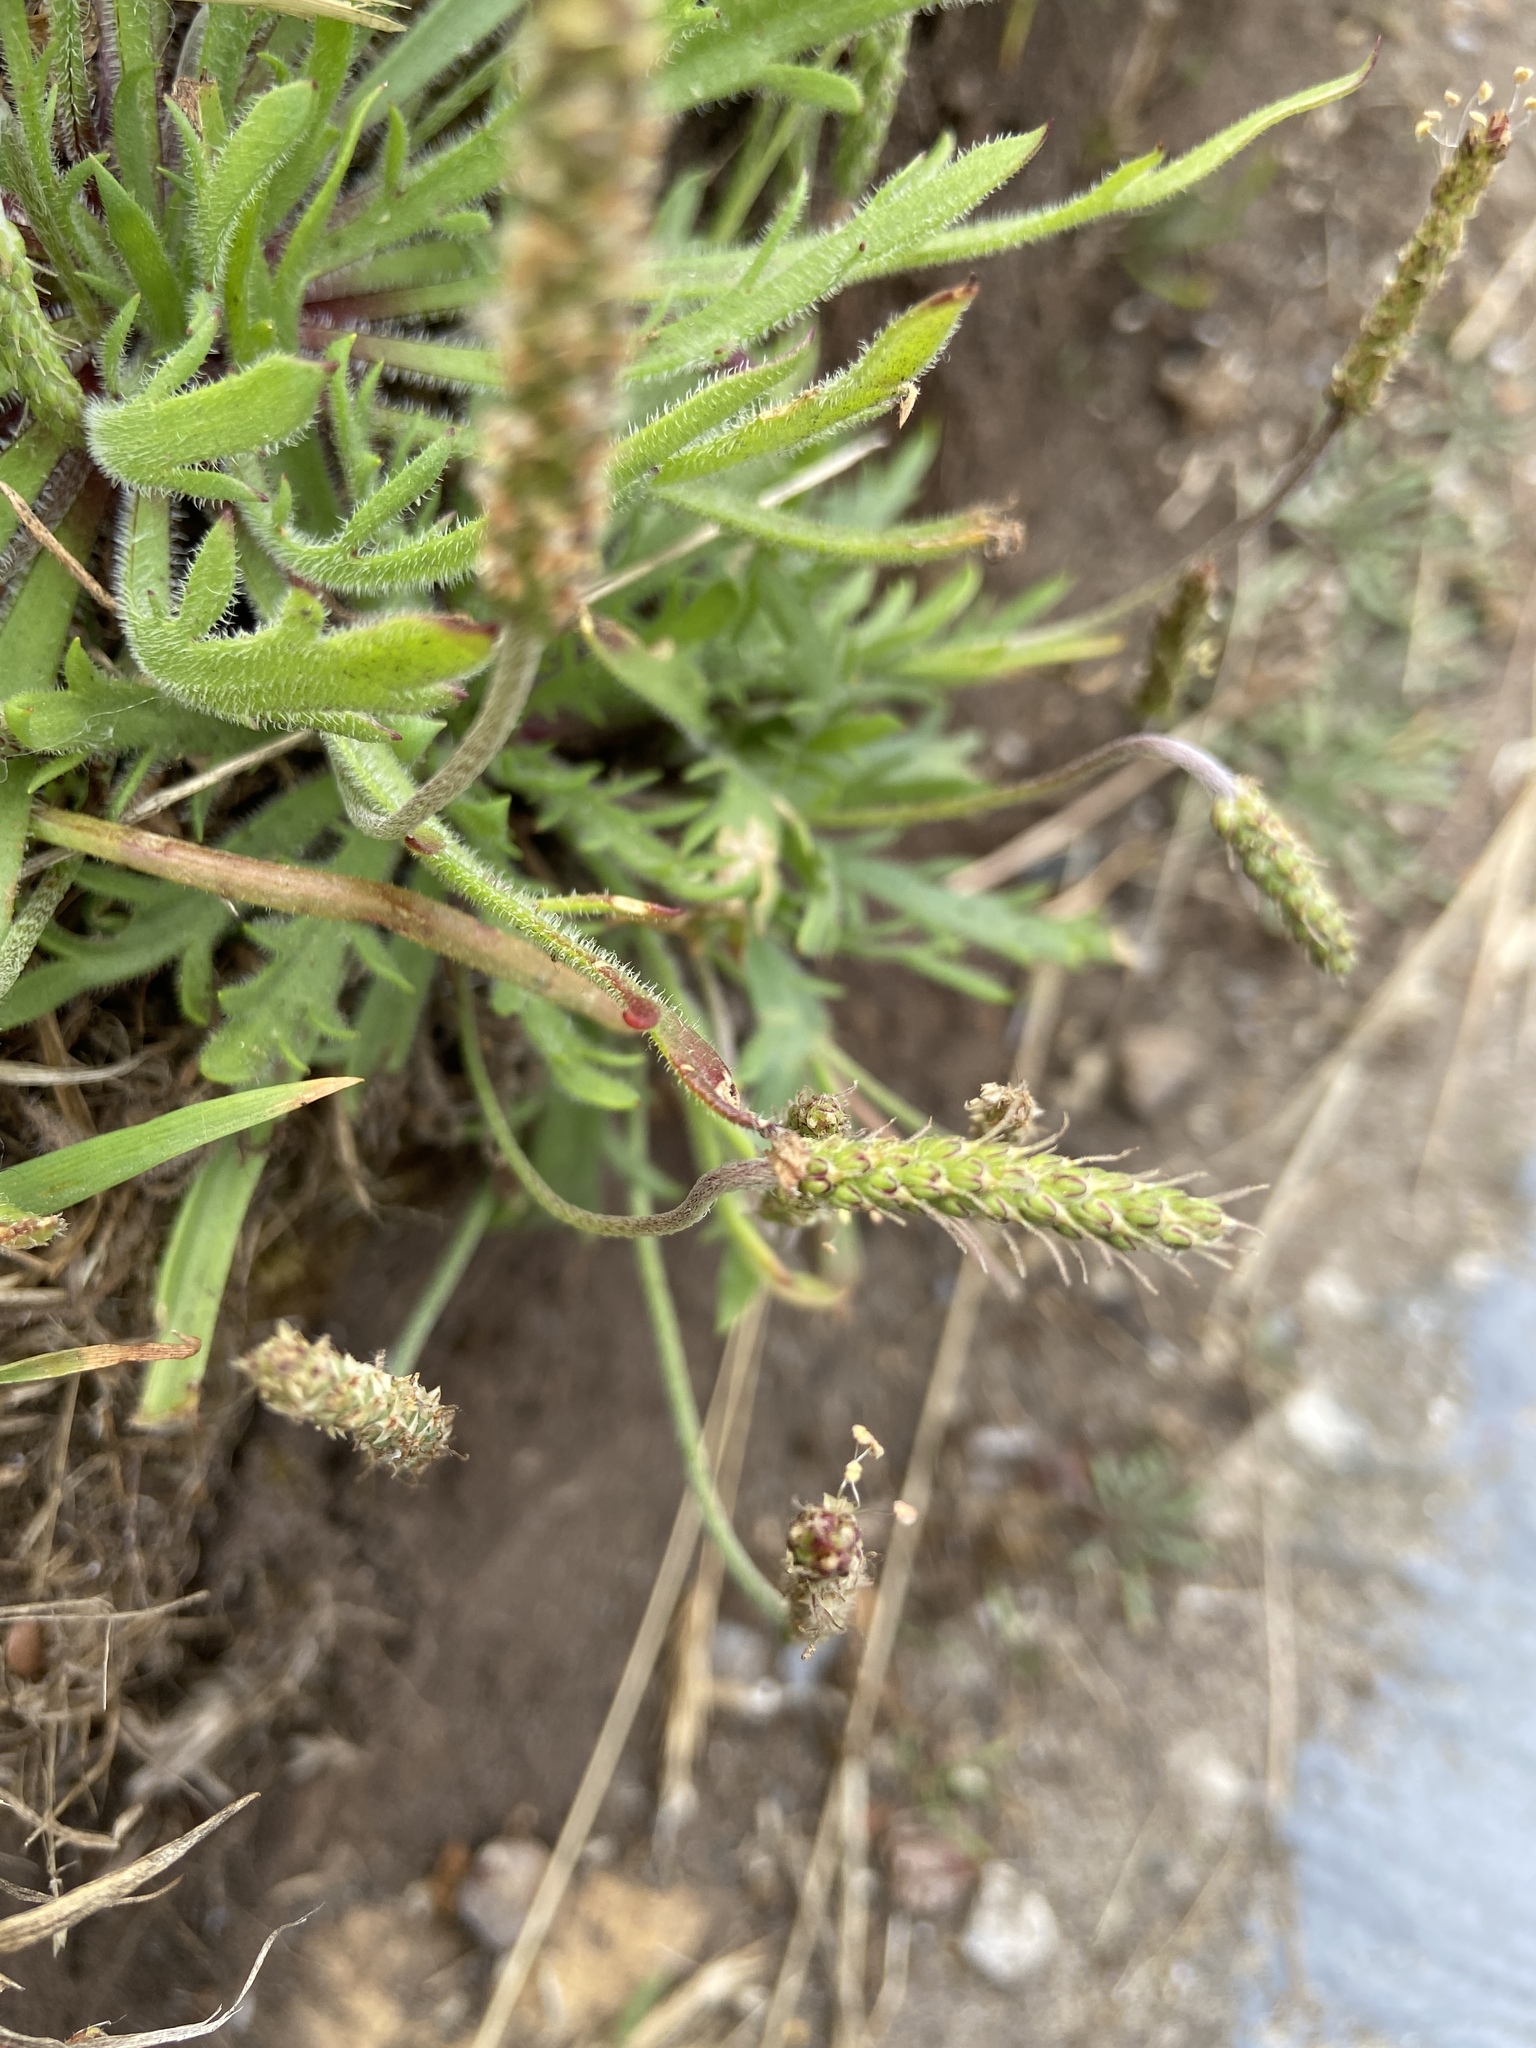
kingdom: Plantae
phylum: Tracheophyta
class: Magnoliopsida
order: Lamiales
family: Plantaginaceae
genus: Plantago
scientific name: Plantago coronopus
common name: Buck's-horn plantain
